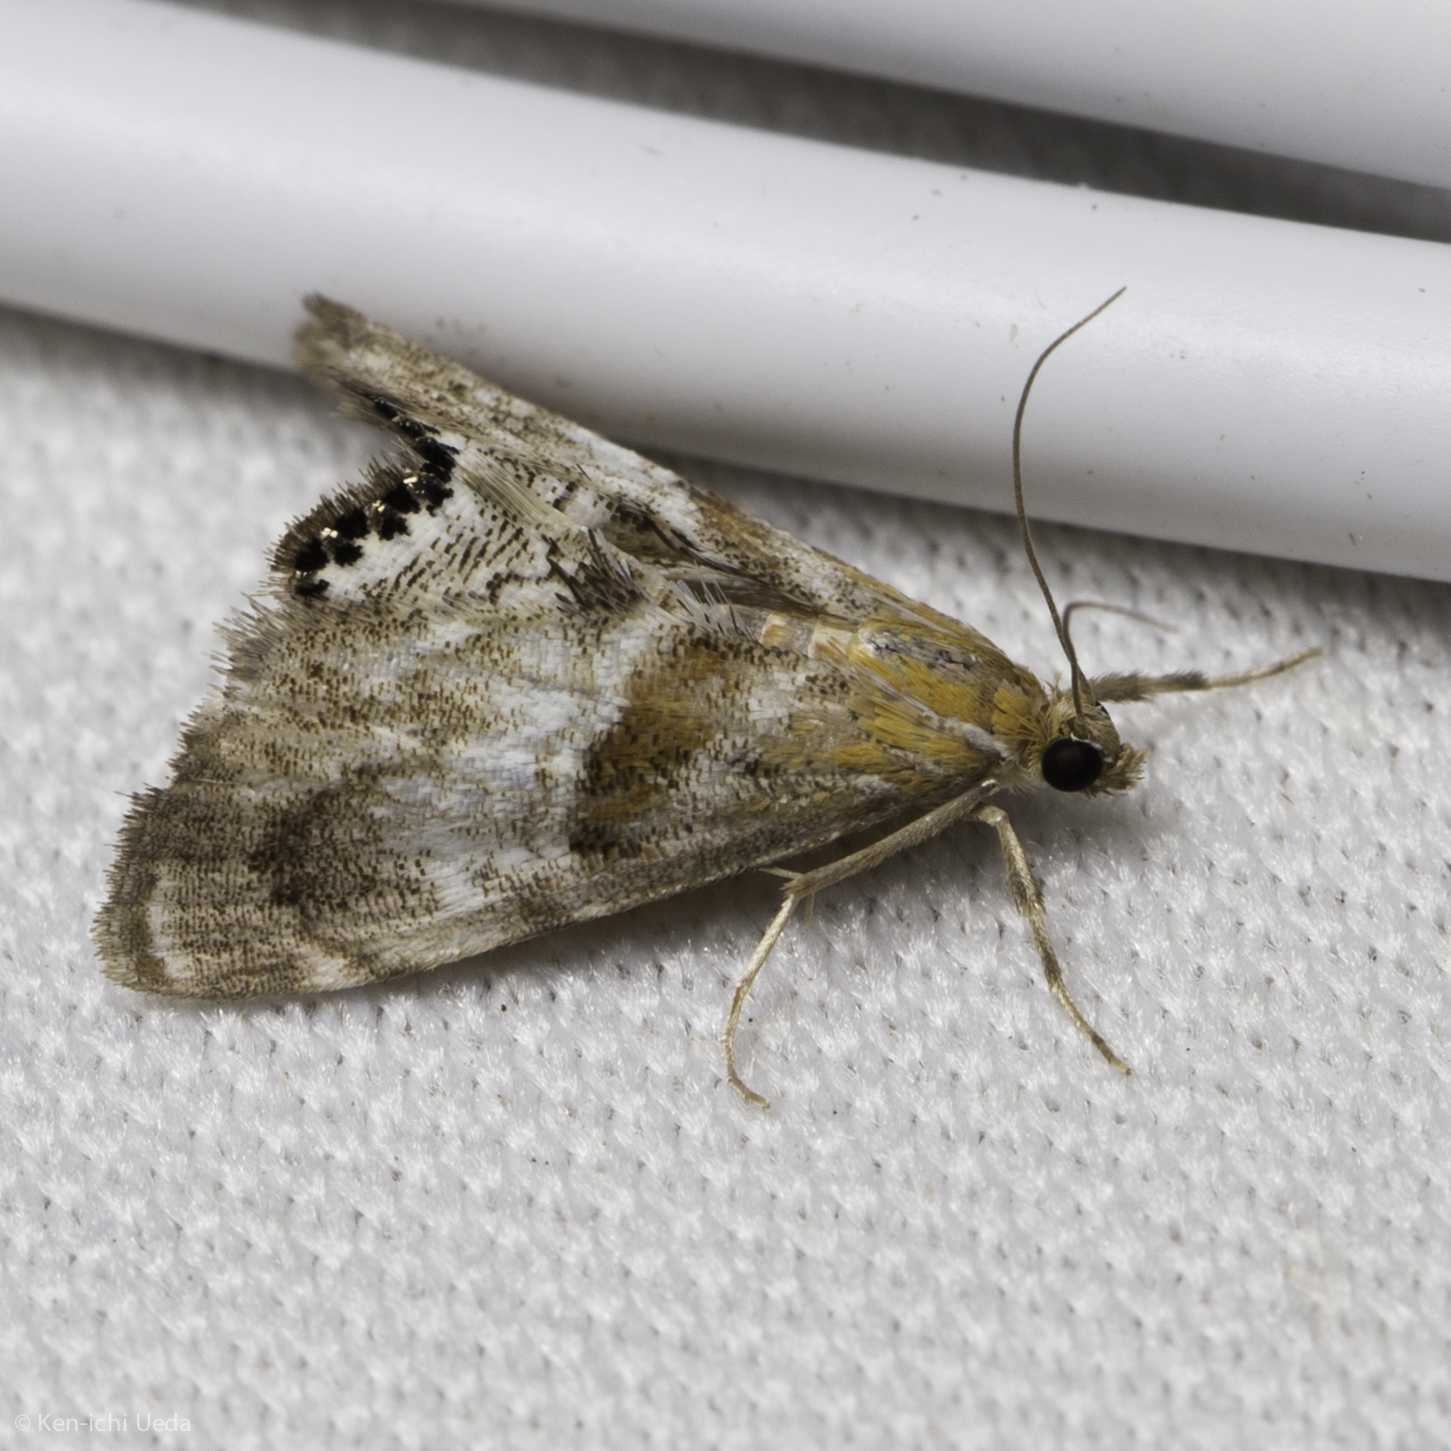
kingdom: Animalia
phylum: Arthropoda
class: Insecta
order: Lepidoptera
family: Crambidae
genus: Dicymolomia
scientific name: Dicymolomia metalliferalis
